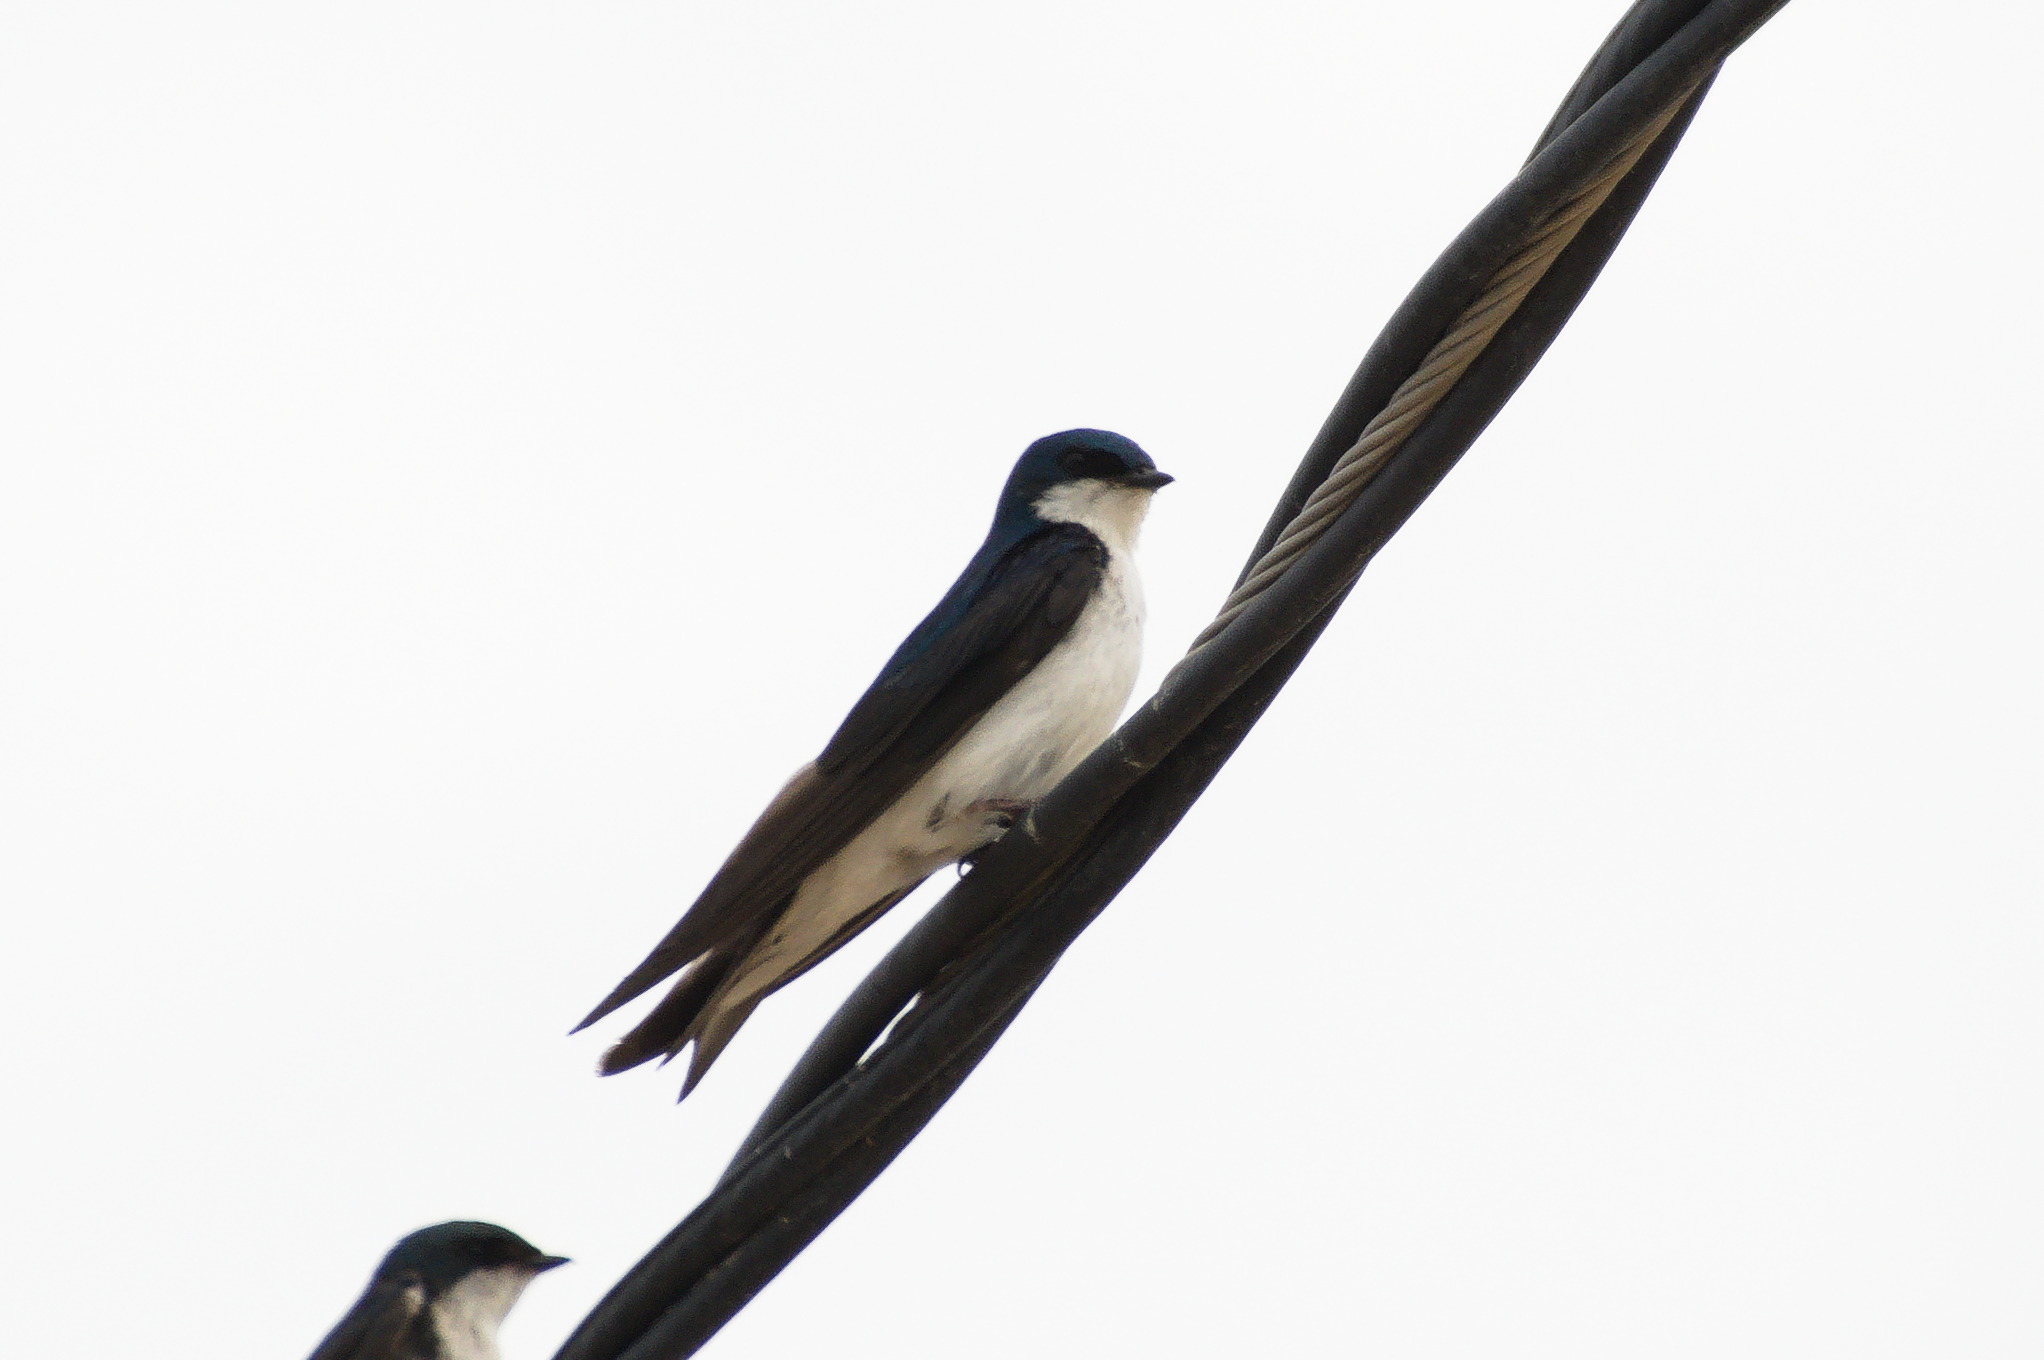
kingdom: Animalia
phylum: Chordata
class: Aves
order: Passeriformes
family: Hirundinidae
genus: Tachycineta
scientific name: Tachycineta bicolor
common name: Tree swallow
